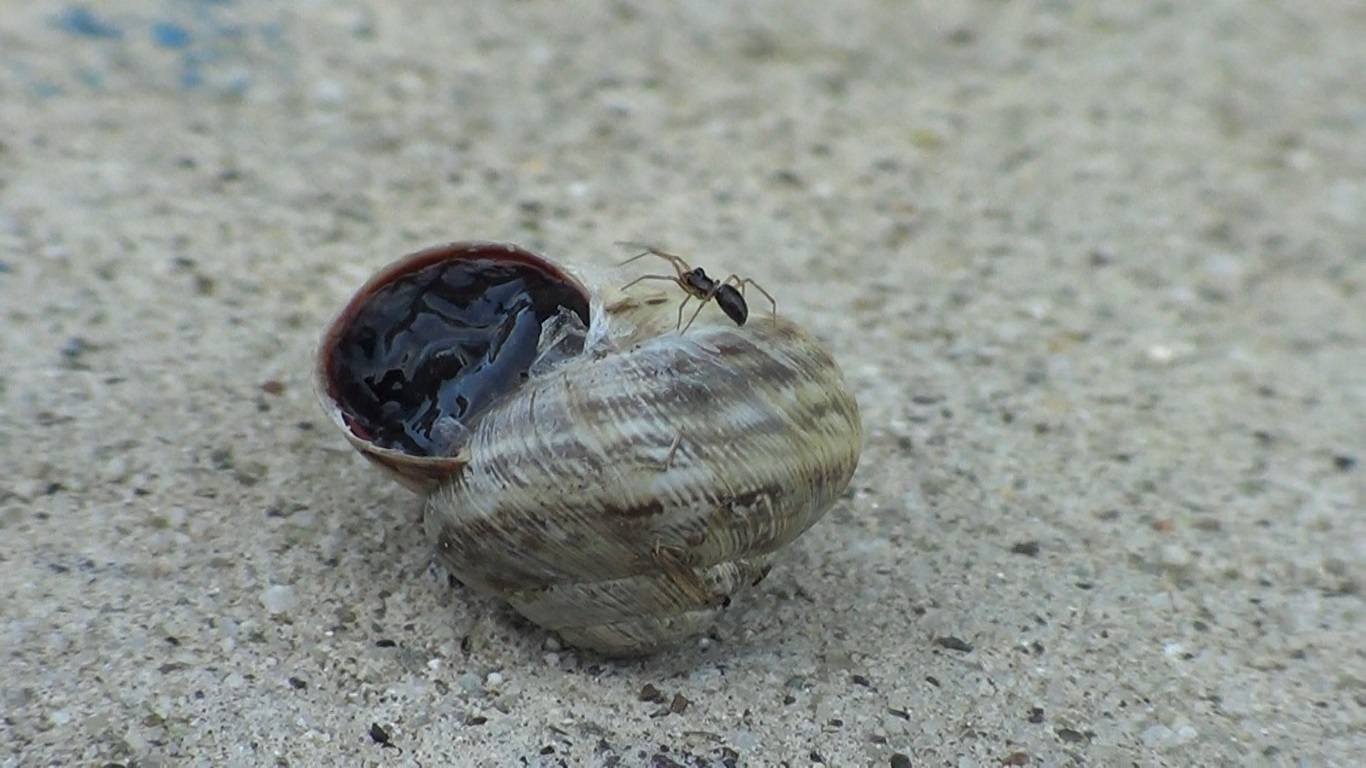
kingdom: Animalia
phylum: Mollusca
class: Gastropoda
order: Stylommatophora
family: Geomitridae
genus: Cernuella
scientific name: Cernuella virgata
